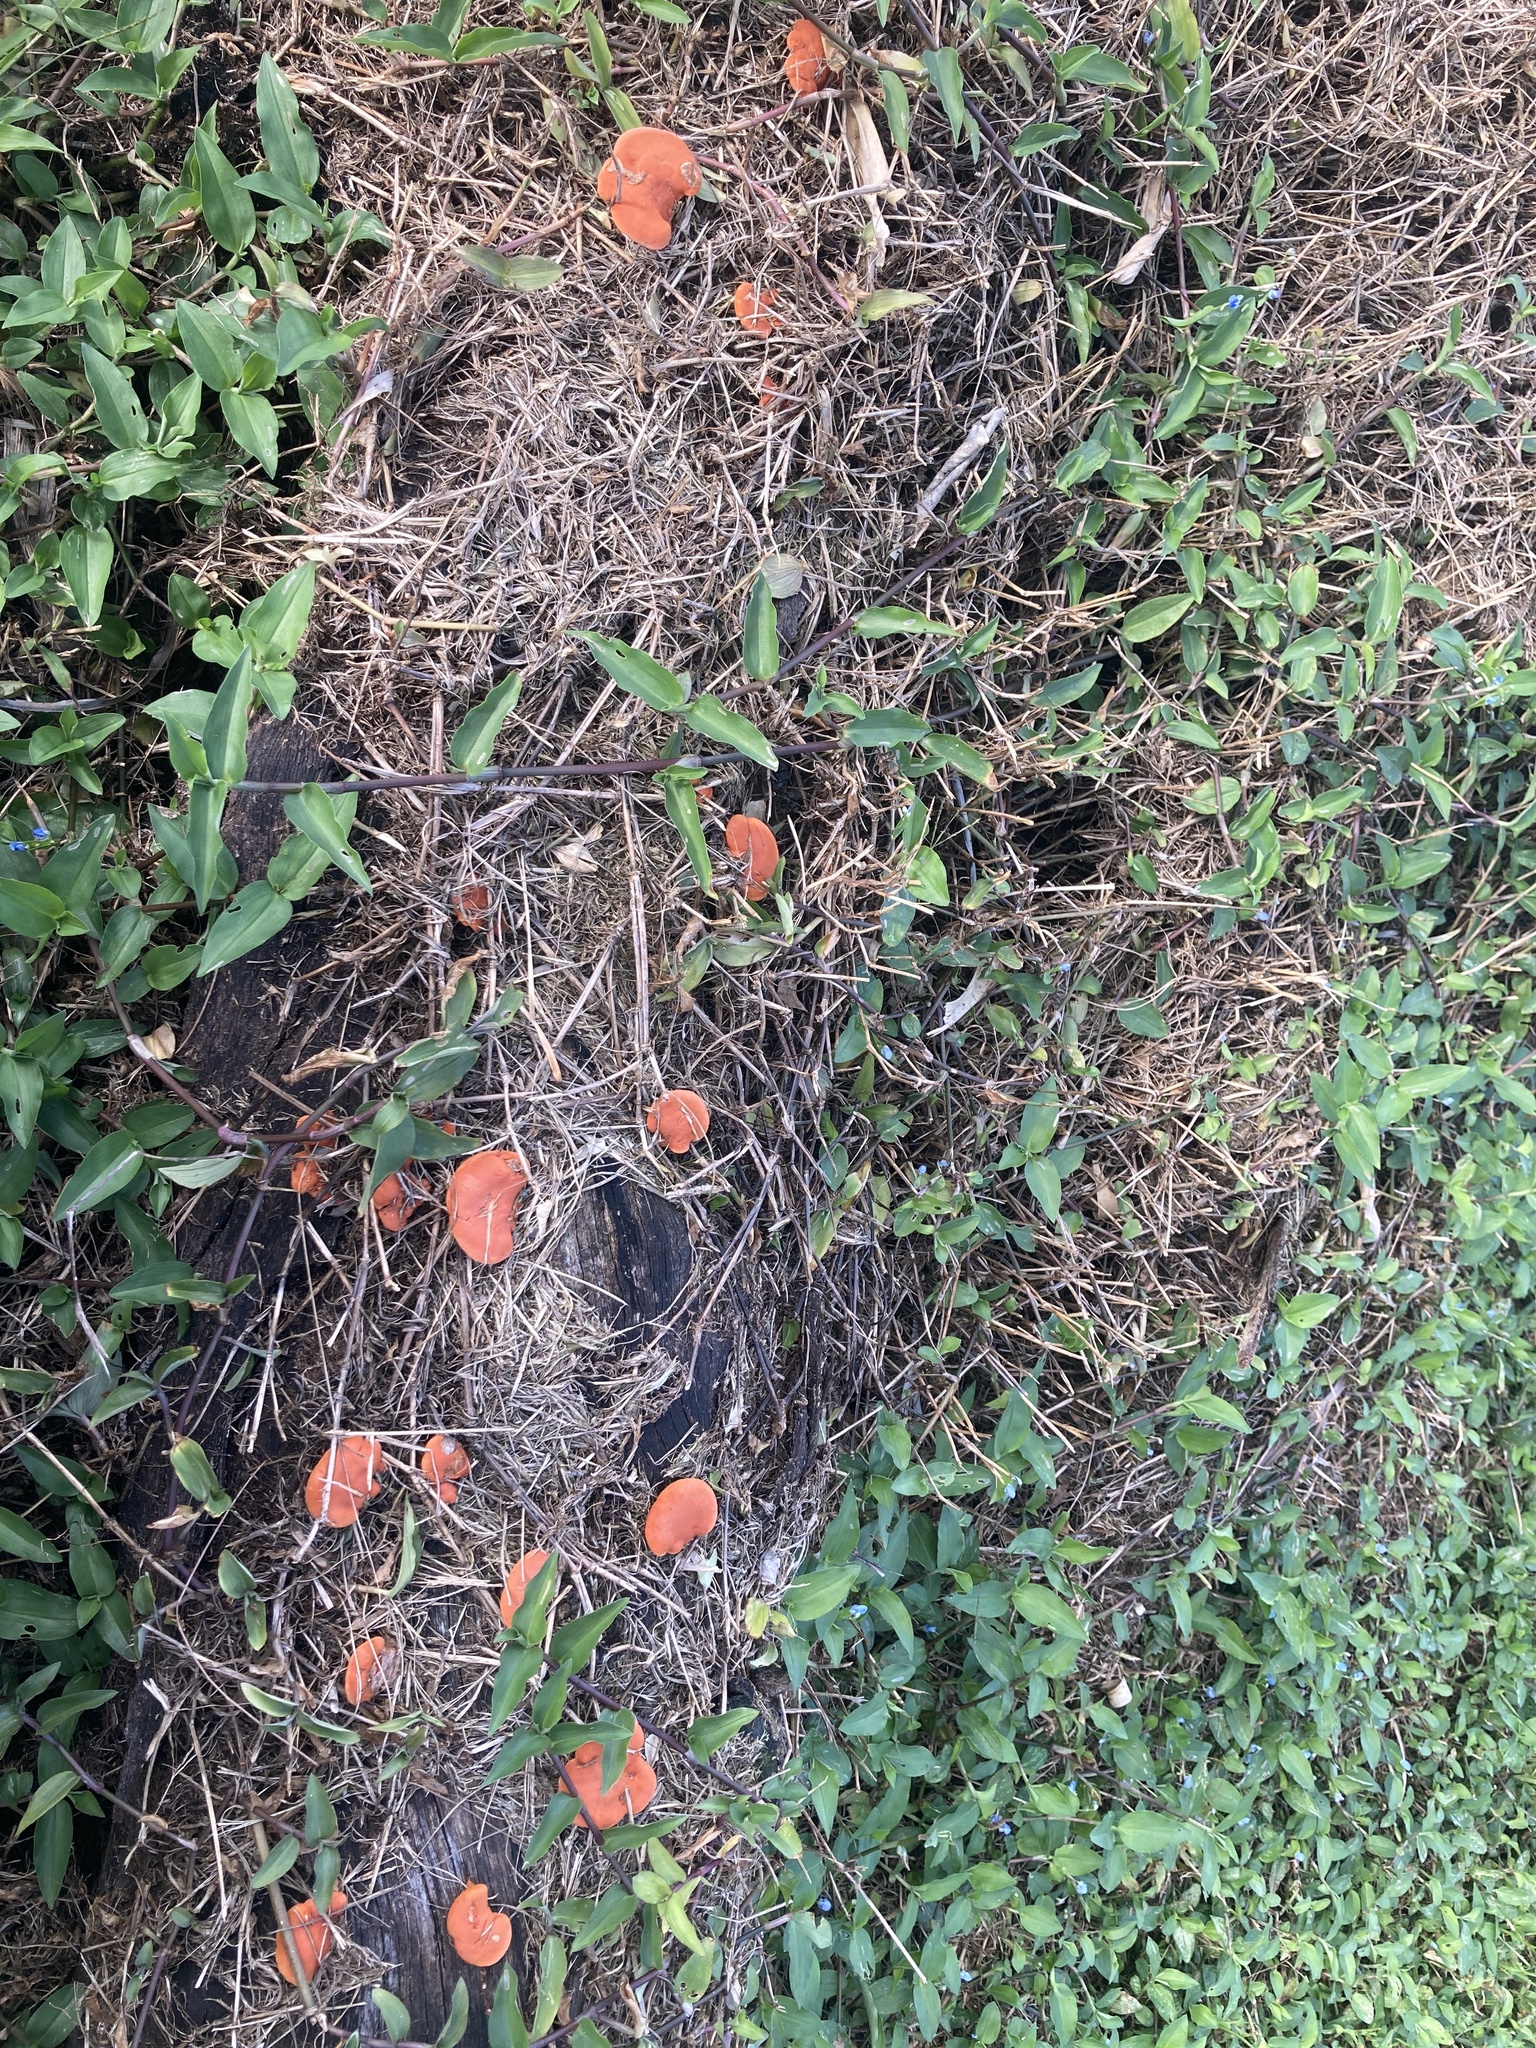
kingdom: Fungi
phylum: Basidiomycota
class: Agaricomycetes
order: Polyporales
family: Polyporaceae
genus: Trametes
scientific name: Trametes cinnabarina
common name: Northern cinnabar polypore
